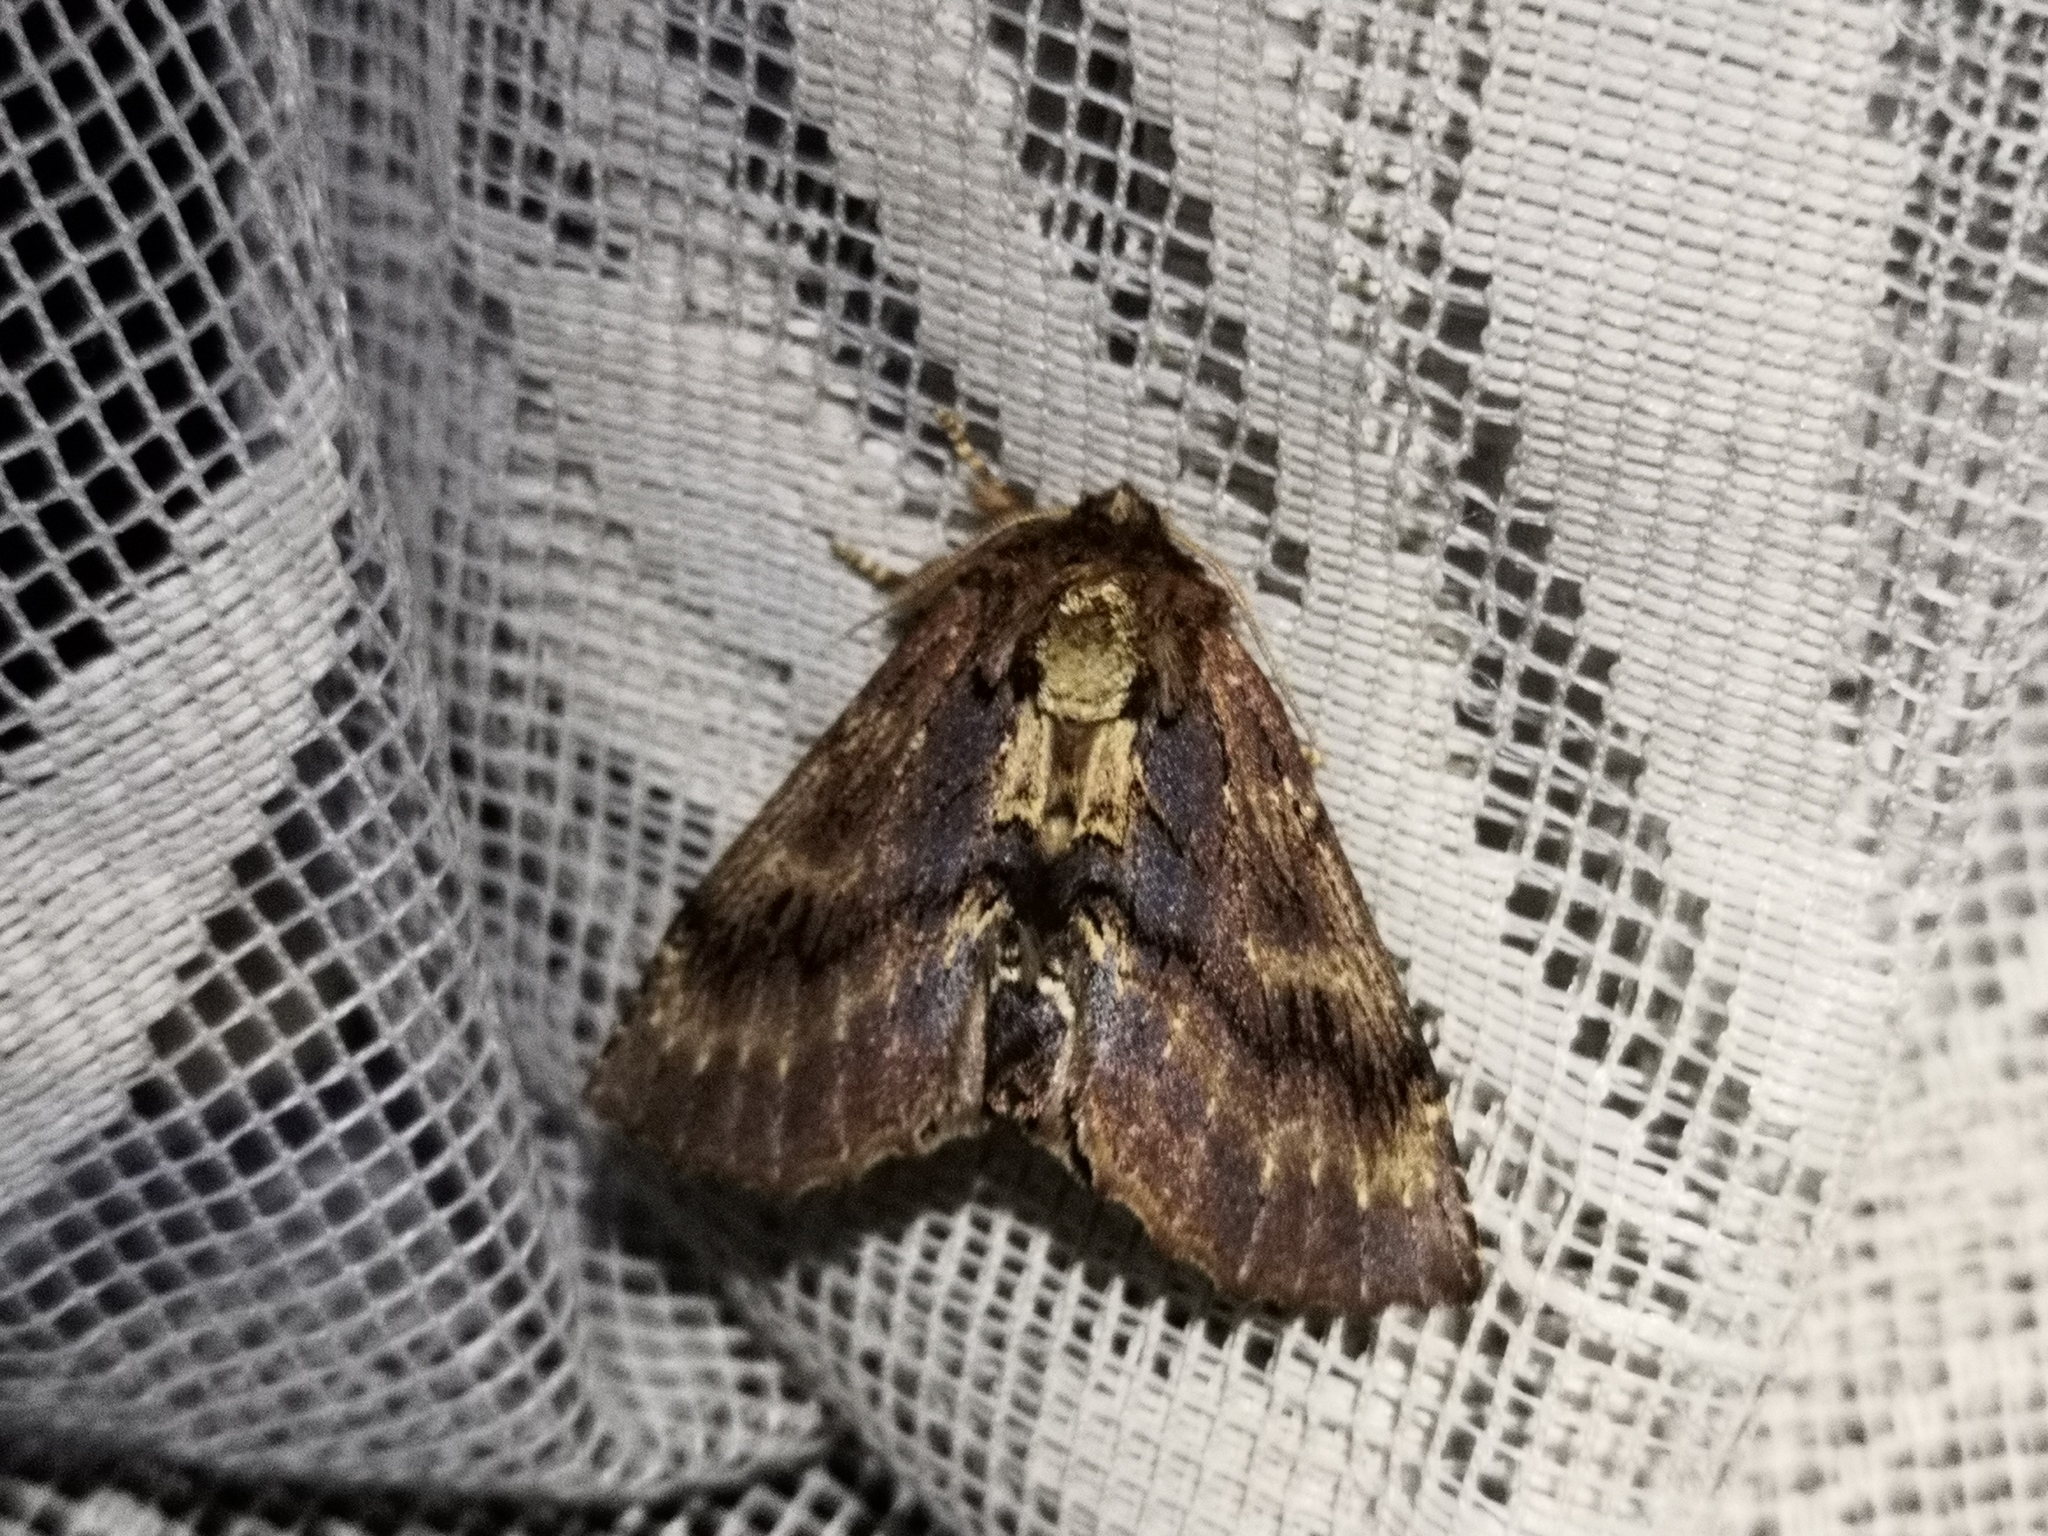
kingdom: Animalia
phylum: Arthropoda
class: Insecta
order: Lepidoptera
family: Notodontidae
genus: Ptilodon
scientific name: Ptilodon capucina
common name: Coxcomb prominent
